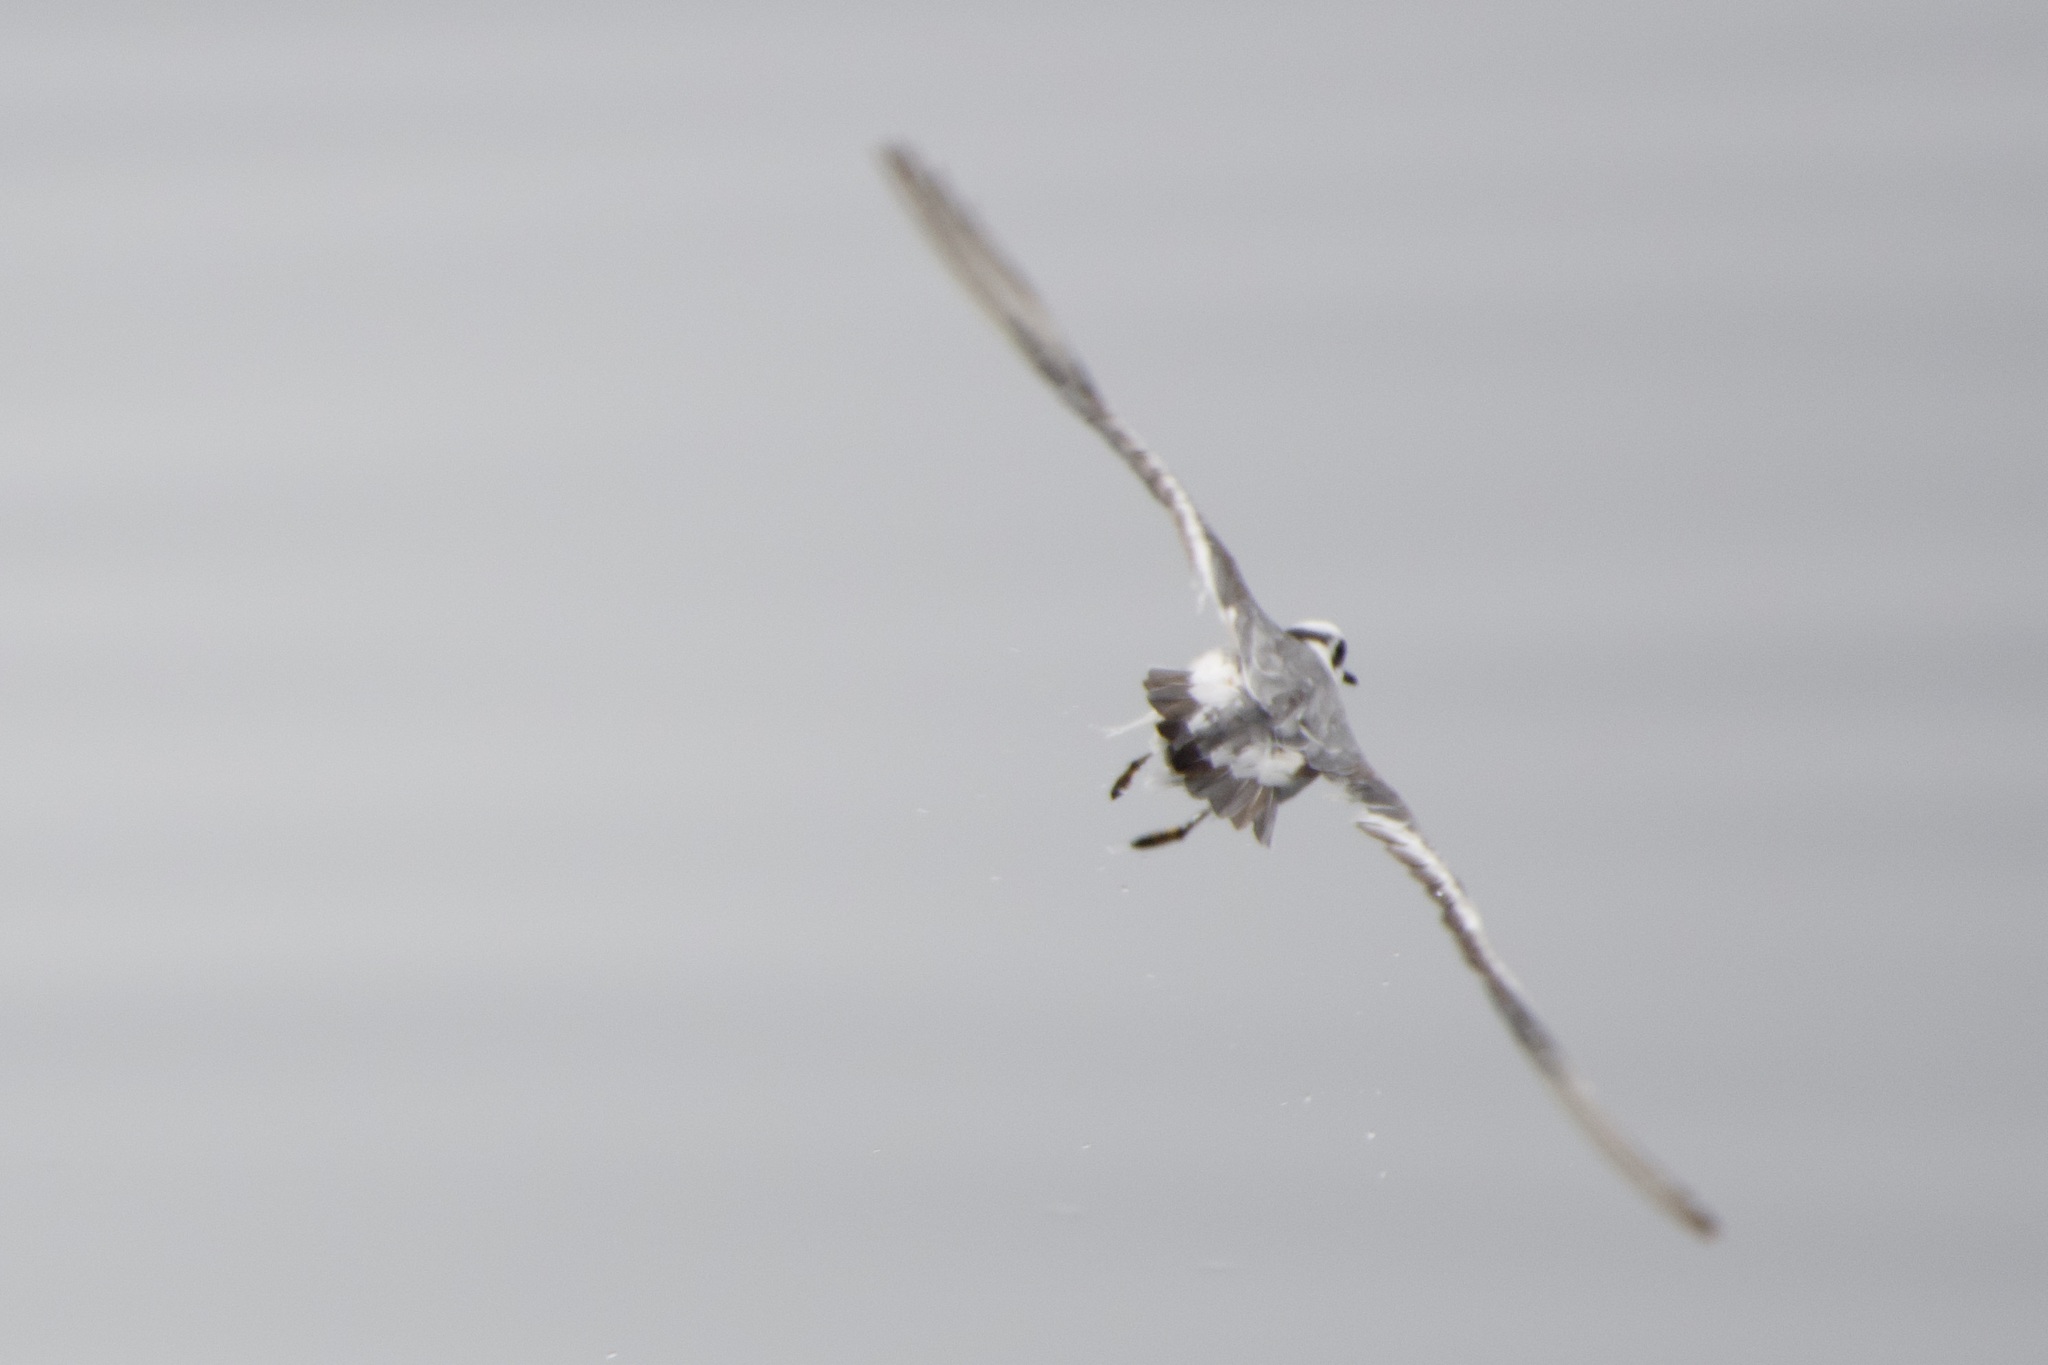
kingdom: Animalia
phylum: Chordata
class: Aves
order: Charadriiformes
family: Scolopacidae
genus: Phalaropus
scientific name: Phalaropus fulicarius
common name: Red phalarope
